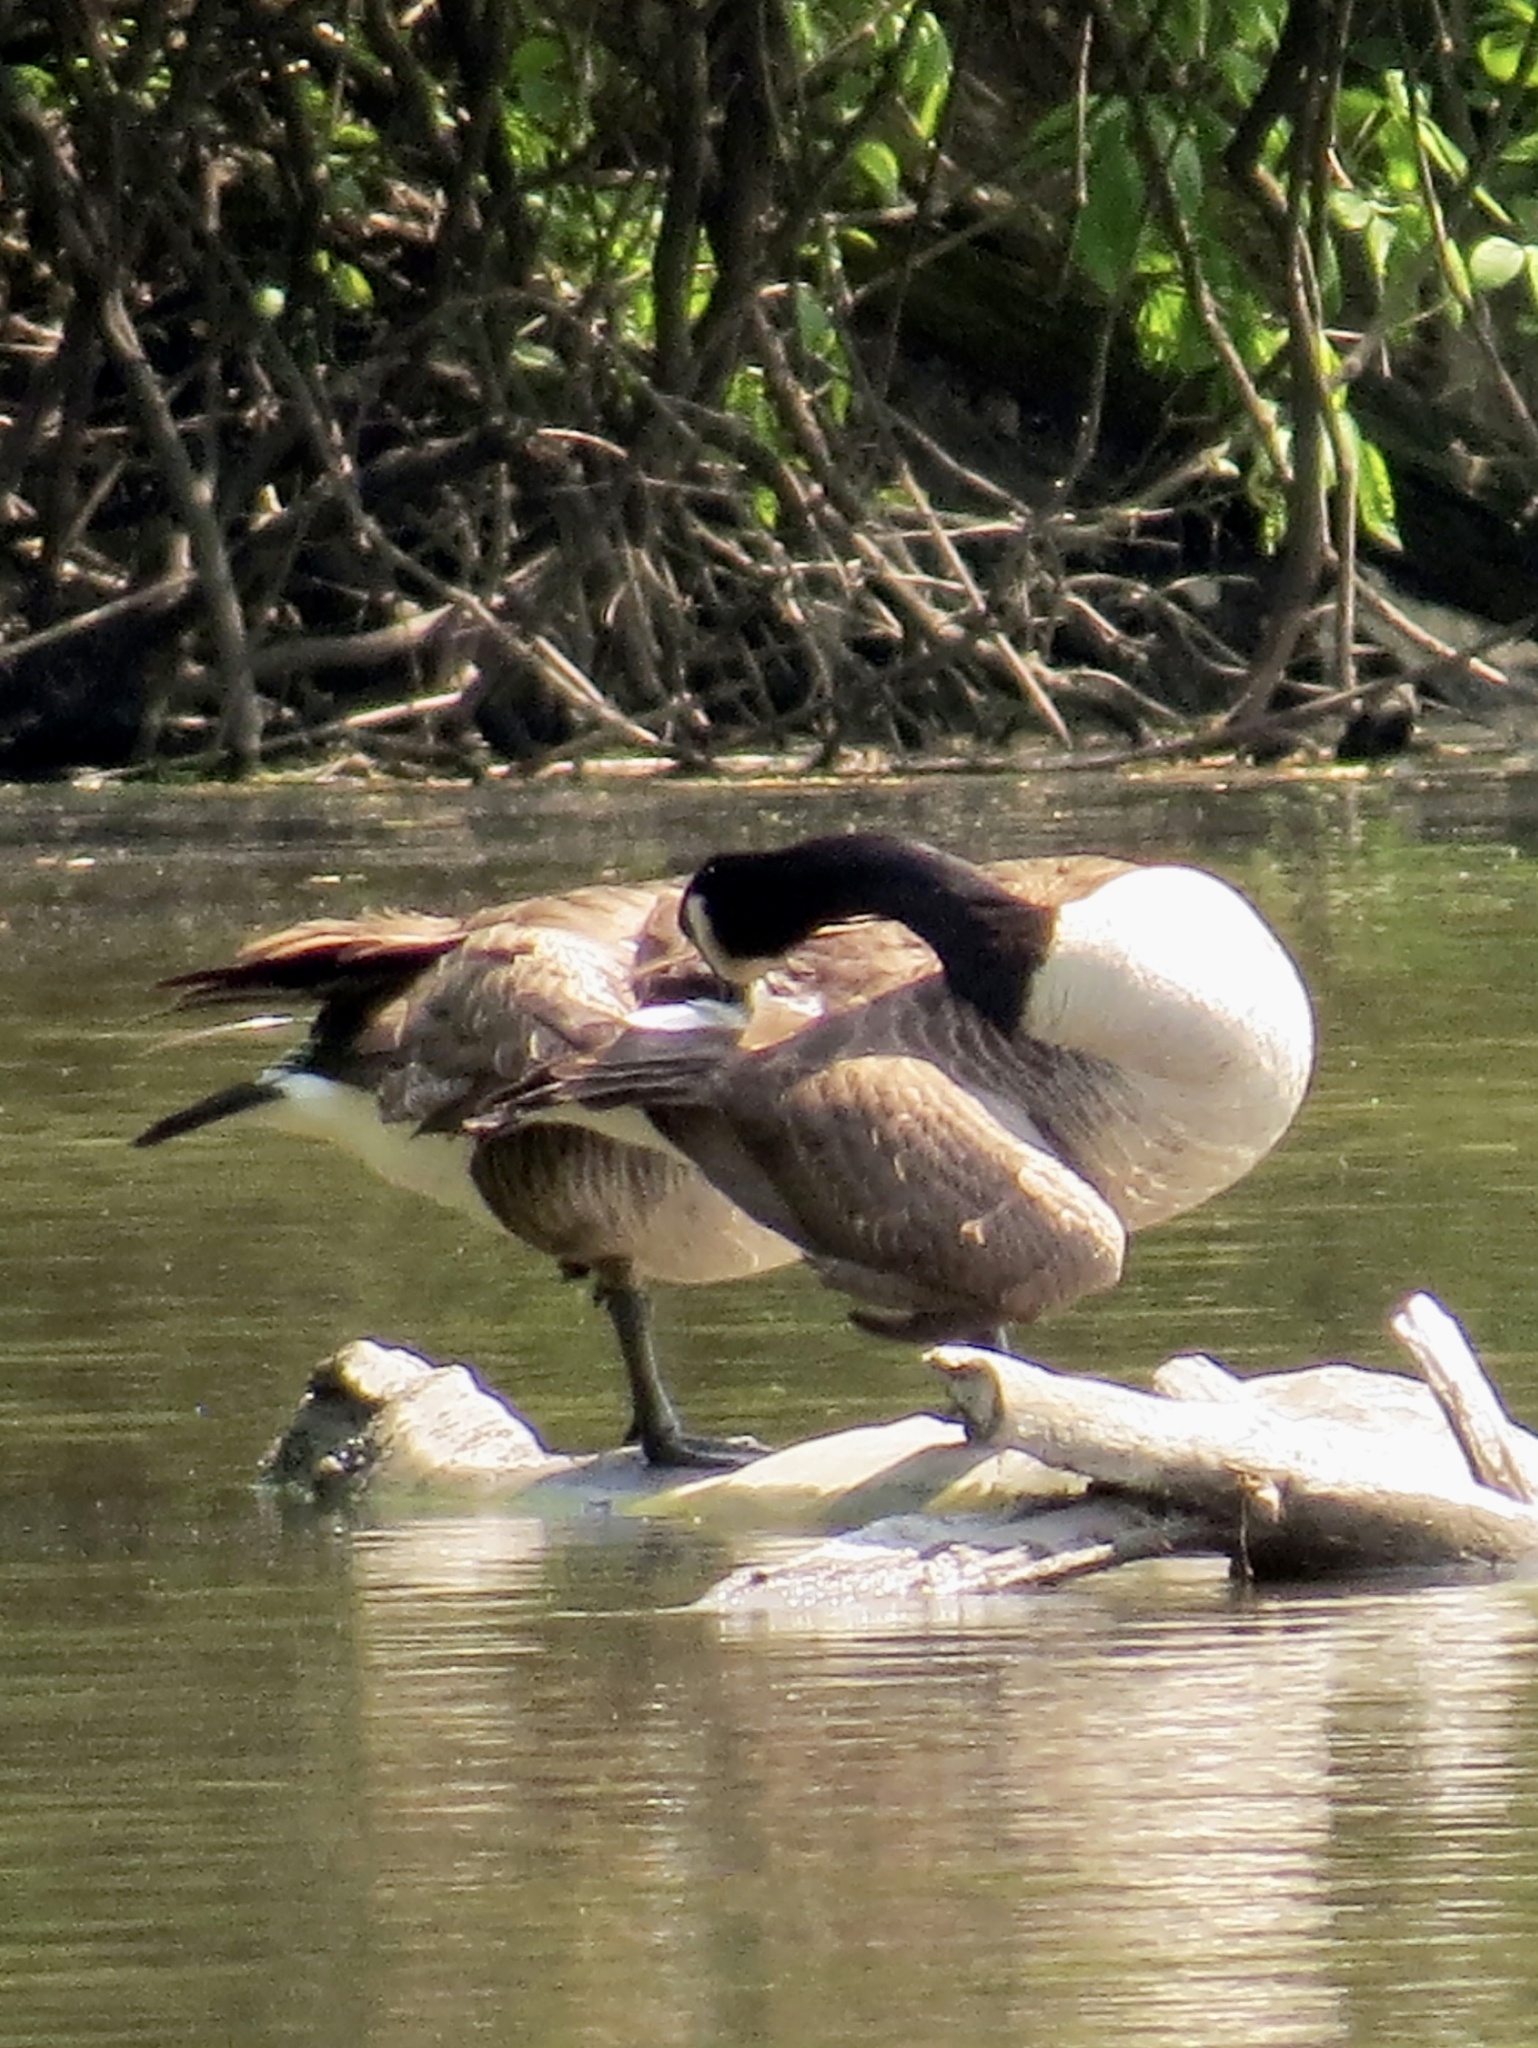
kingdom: Animalia
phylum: Chordata
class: Aves
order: Anseriformes
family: Anatidae
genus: Branta
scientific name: Branta canadensis
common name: Canada goose
